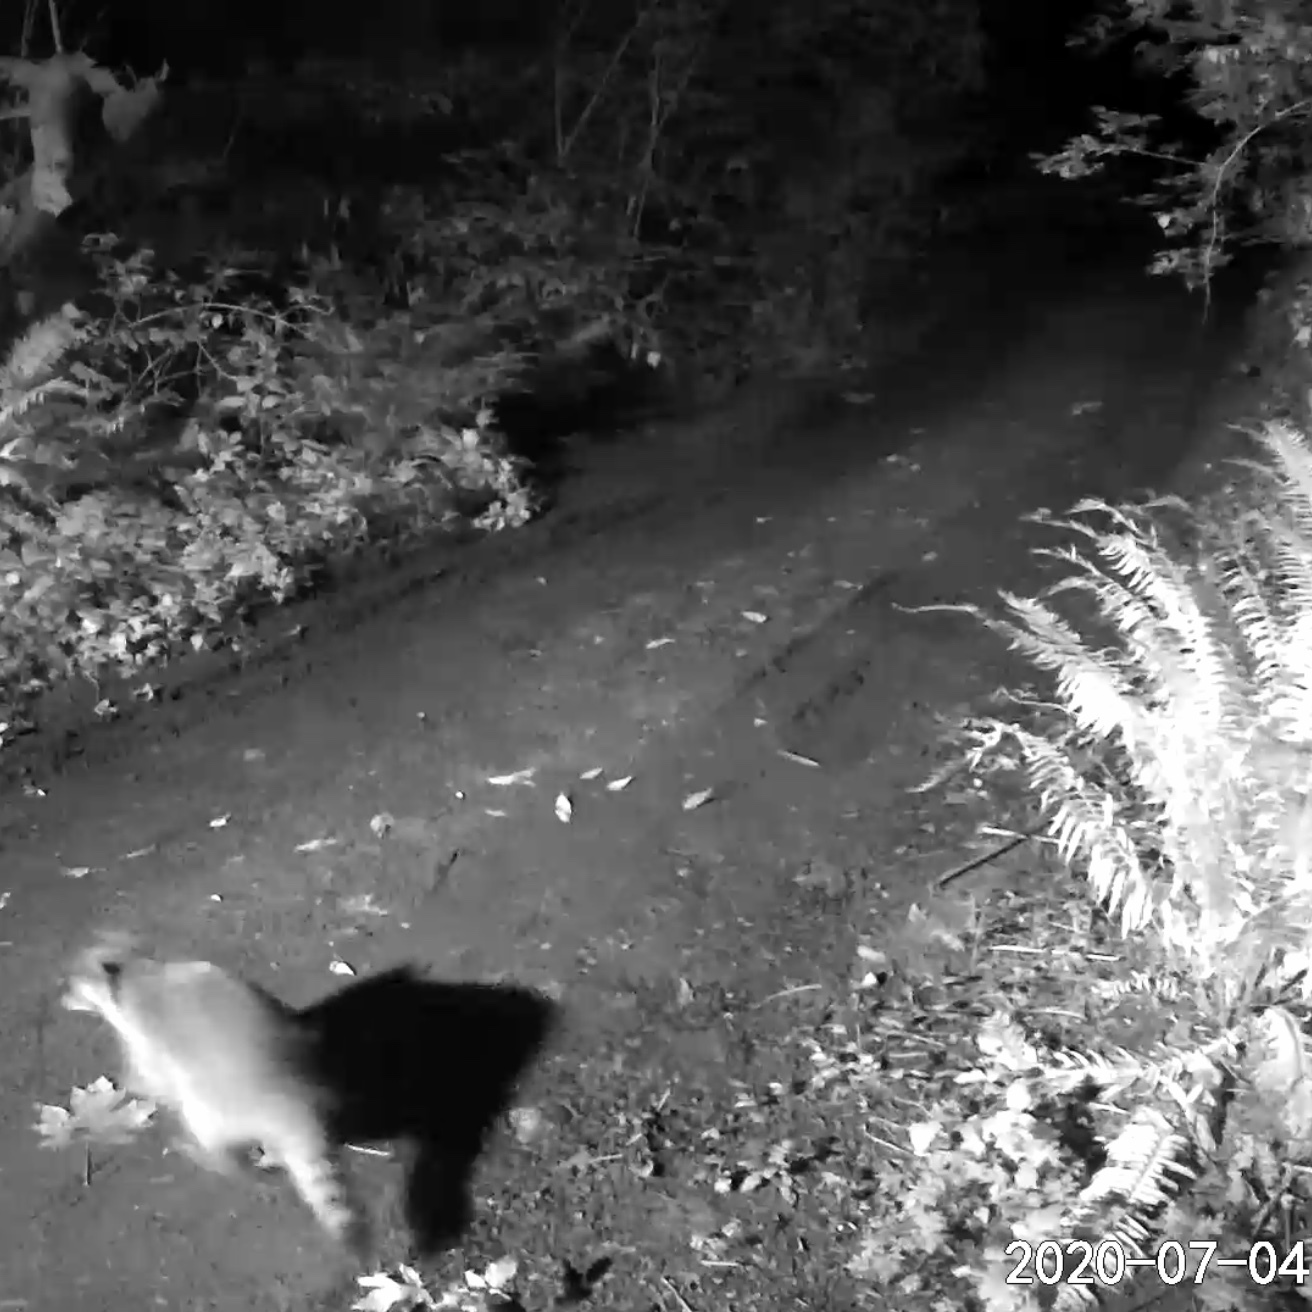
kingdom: Animalia
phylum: Chordata
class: Mammalia
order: Carnivora
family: Procyonidae
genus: Procyon
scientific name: Procyon lotor
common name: Raccoon
